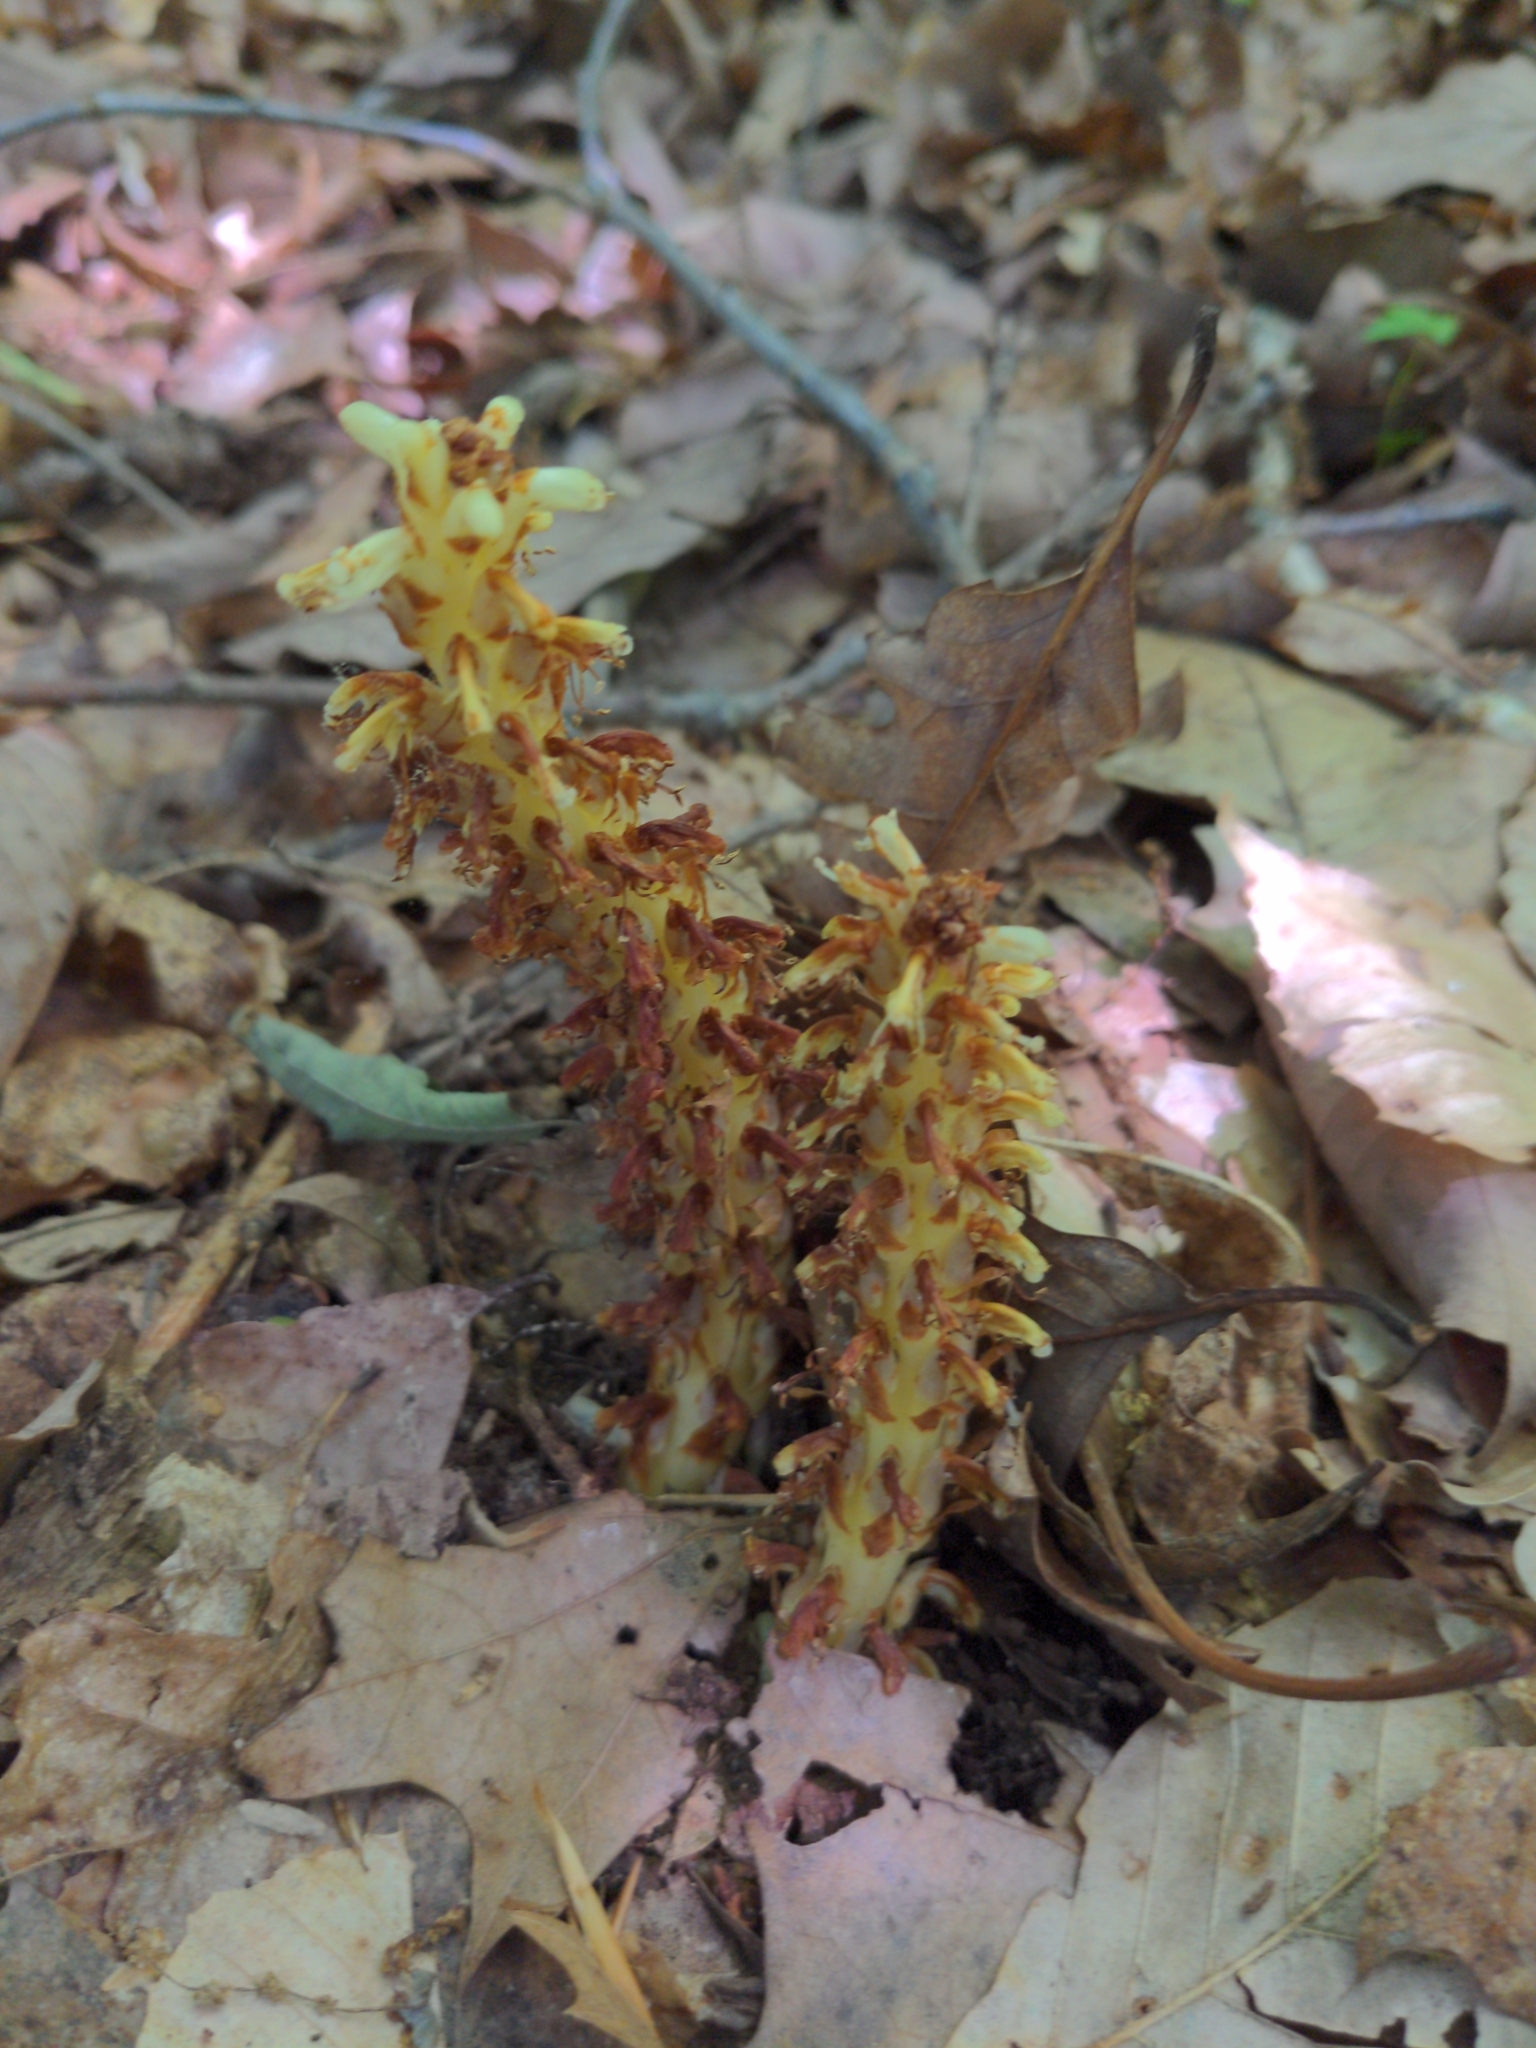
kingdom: Plantae
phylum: Tracheophyta
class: Magnoliopsida
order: Lamiales
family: Orobanchaceae
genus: Conopholis
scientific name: Conopholis americana
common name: American cancer-root
